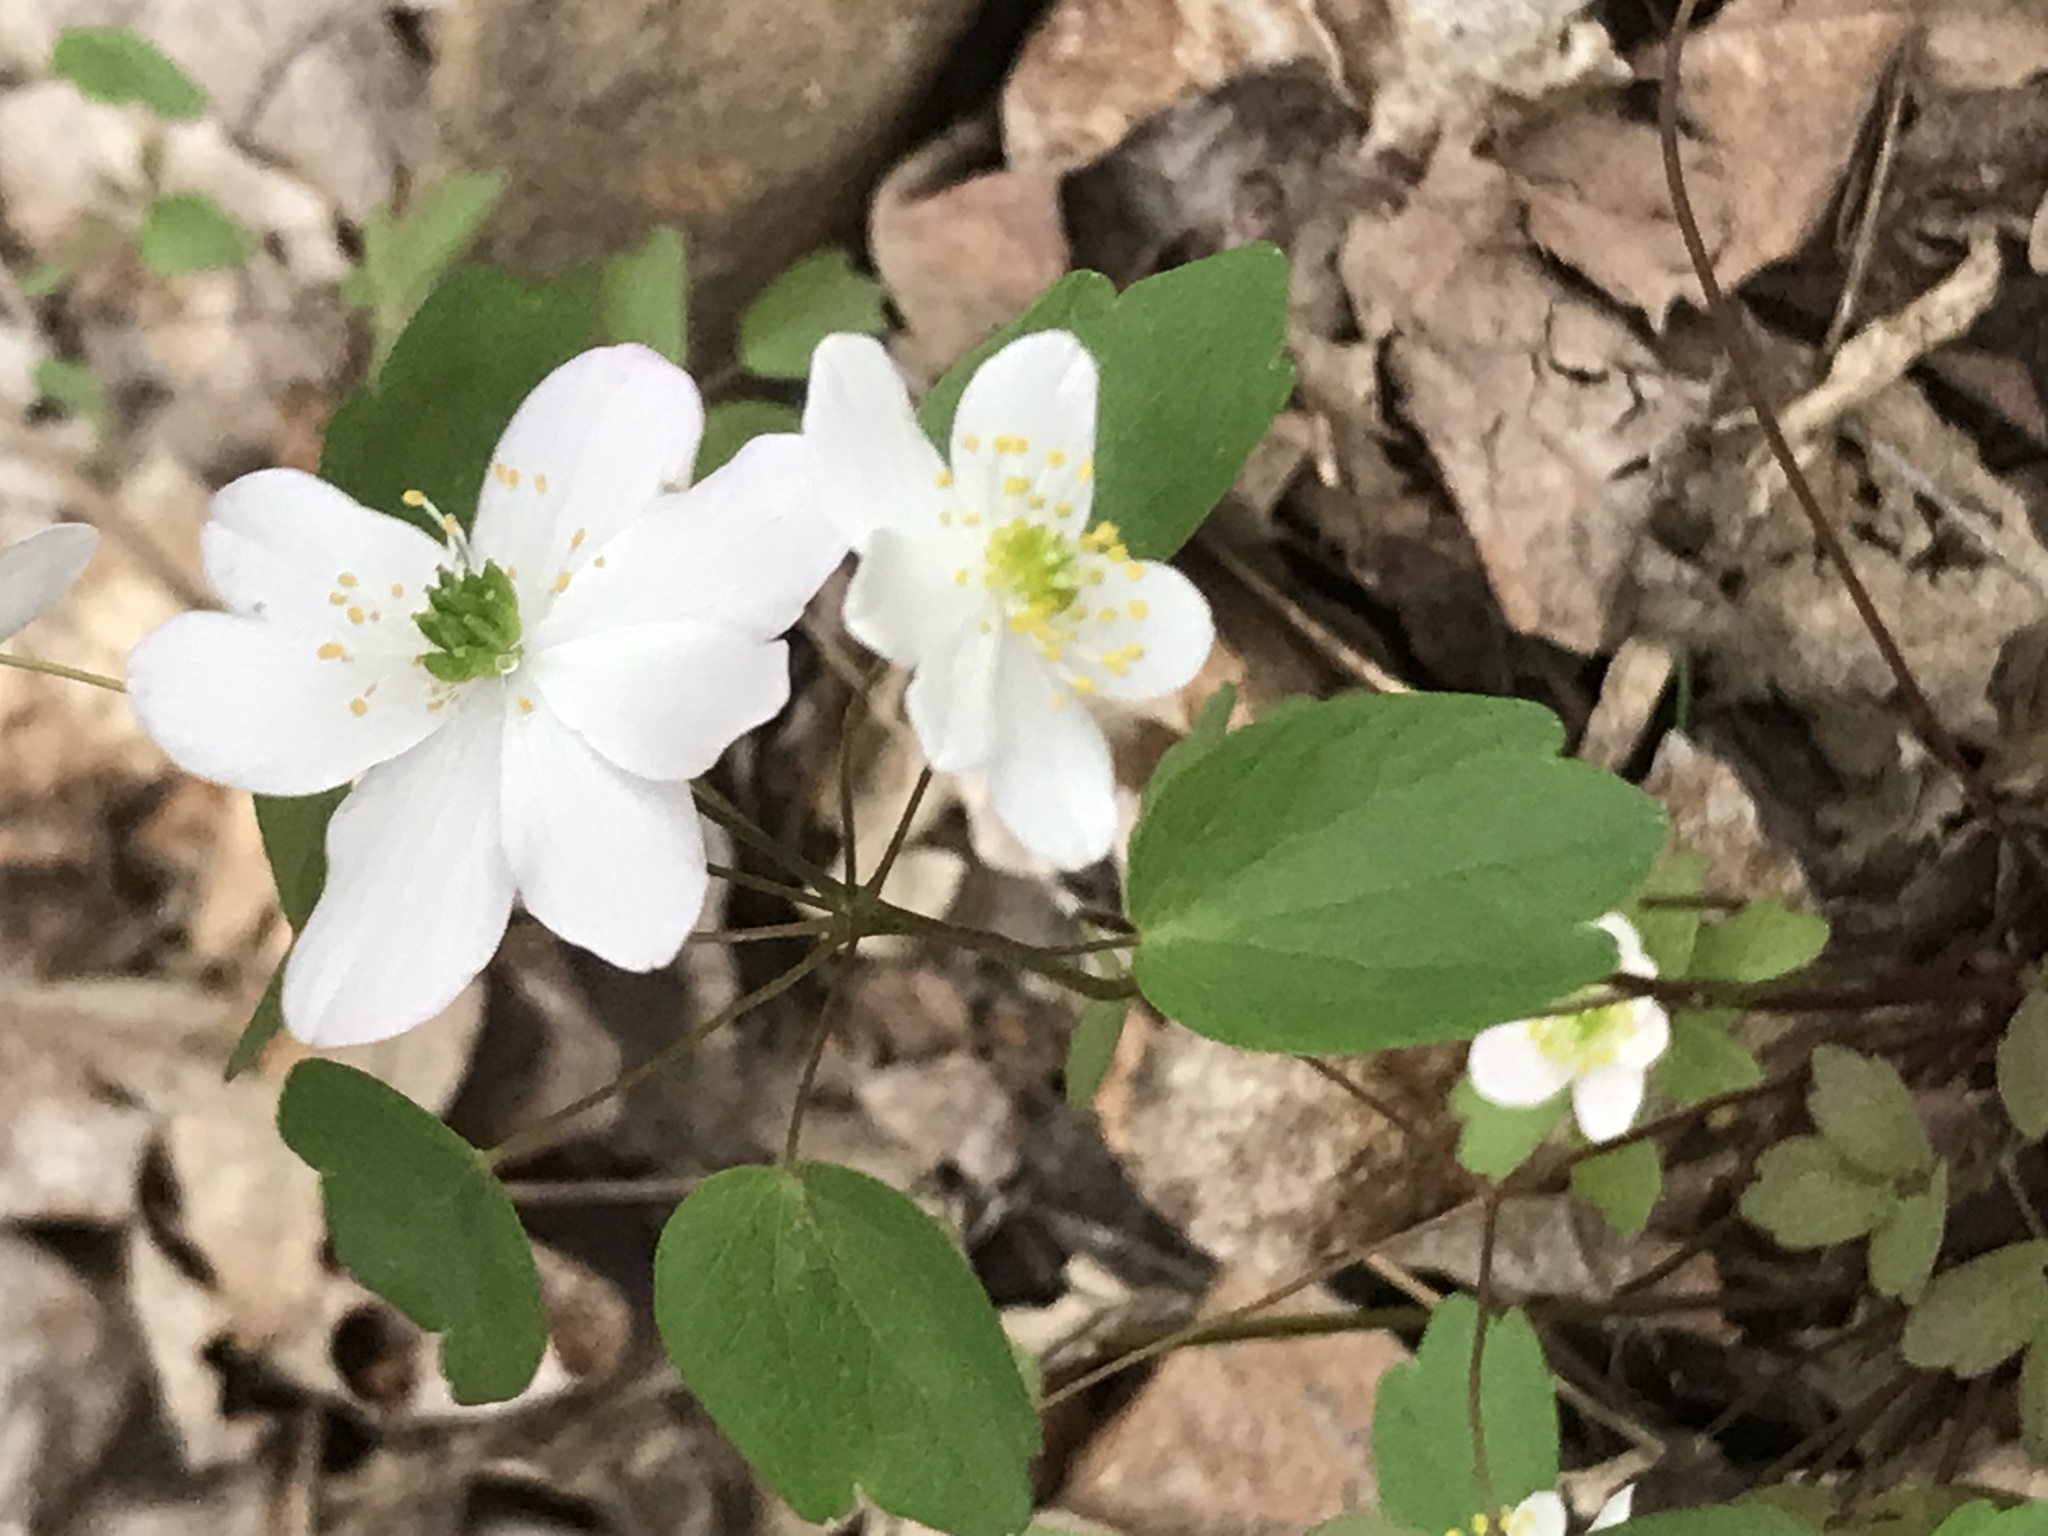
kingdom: Plantae
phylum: Tracheophyta
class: Magnoliopsida
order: Ranunculales
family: Ranunculaceae
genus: Thalictrum
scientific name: Thalictrum thalictroides
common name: Rue-anemone
